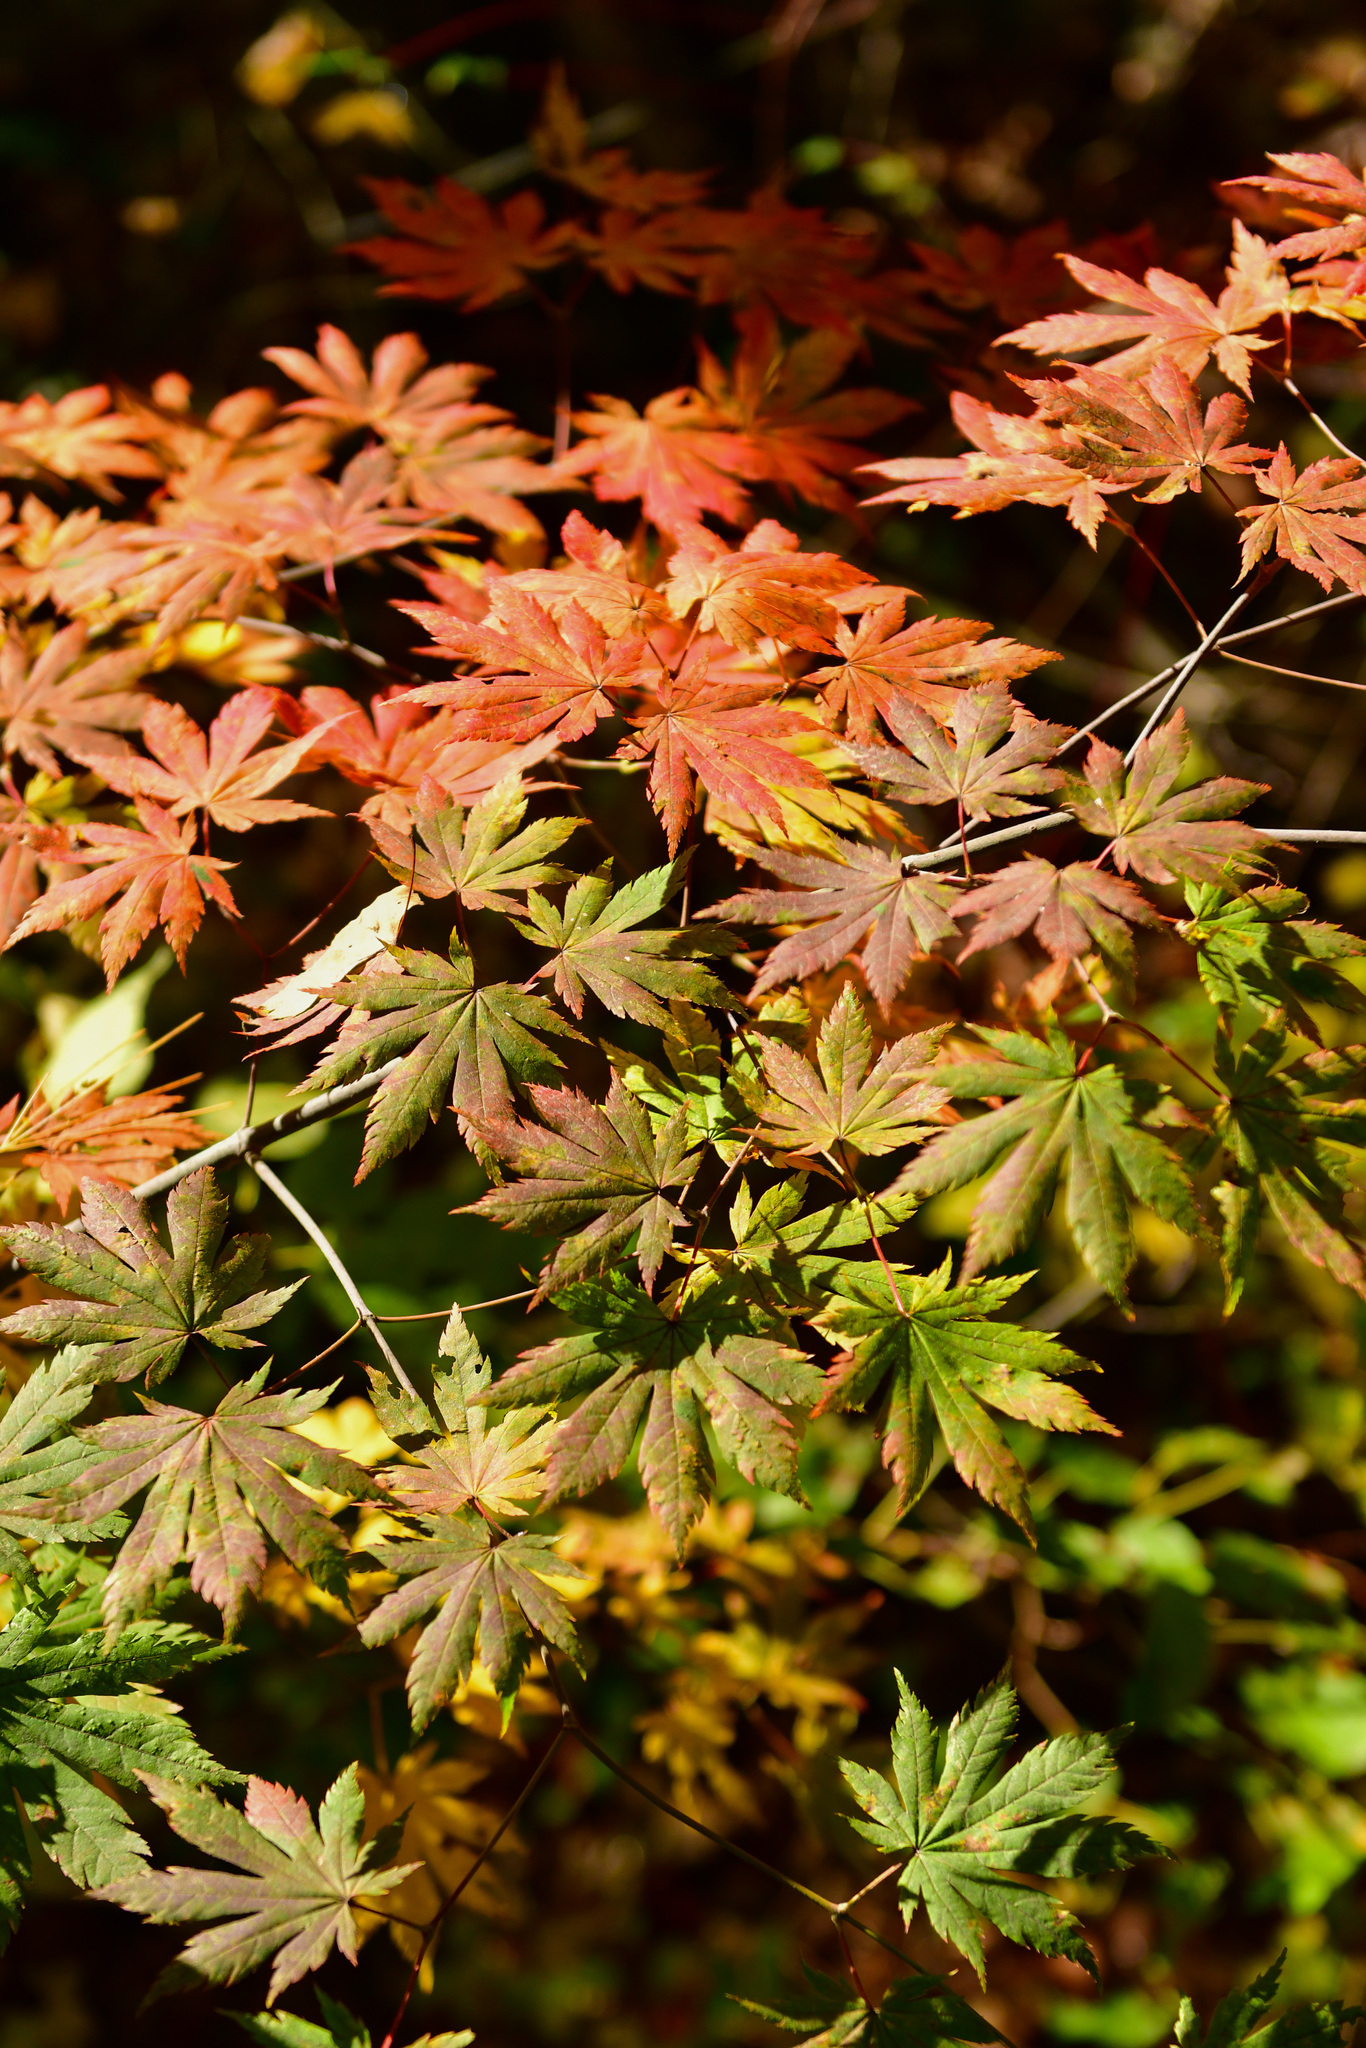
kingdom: Plantae
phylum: Tracheophyta
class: Magnoliopsida
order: Sapindales
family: Sapindaceae
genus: Acer
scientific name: Acer pseudosieboldianum
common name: Korean maple
